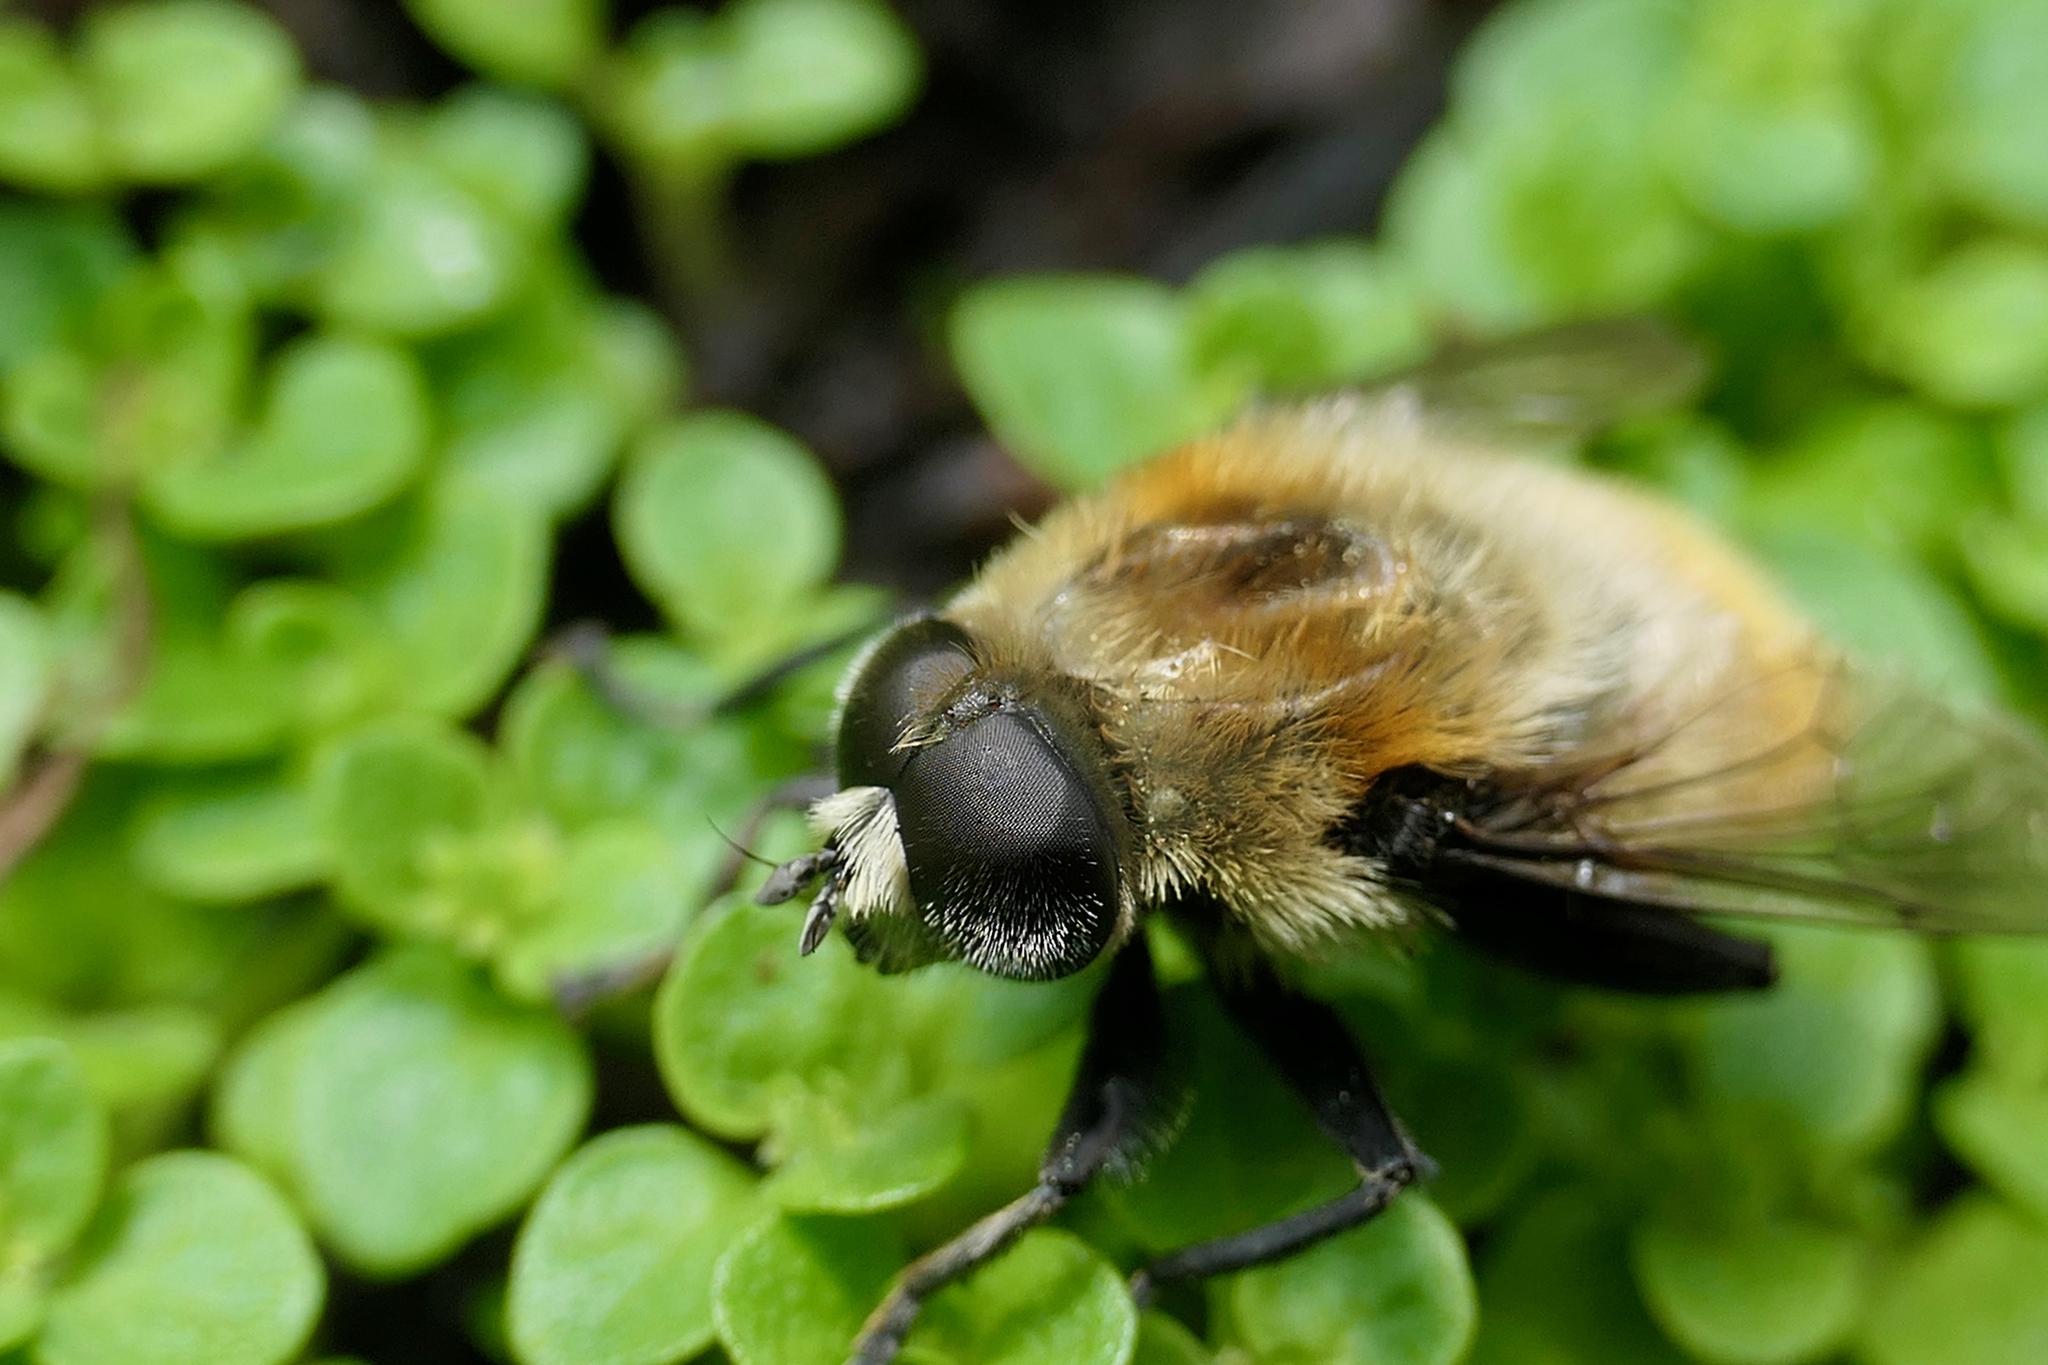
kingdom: Animalia
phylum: Arthropoda
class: Insecta
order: Diptera
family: Syrphidae
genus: Merodon
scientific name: Merodon equestris
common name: Greater bulb-fly
